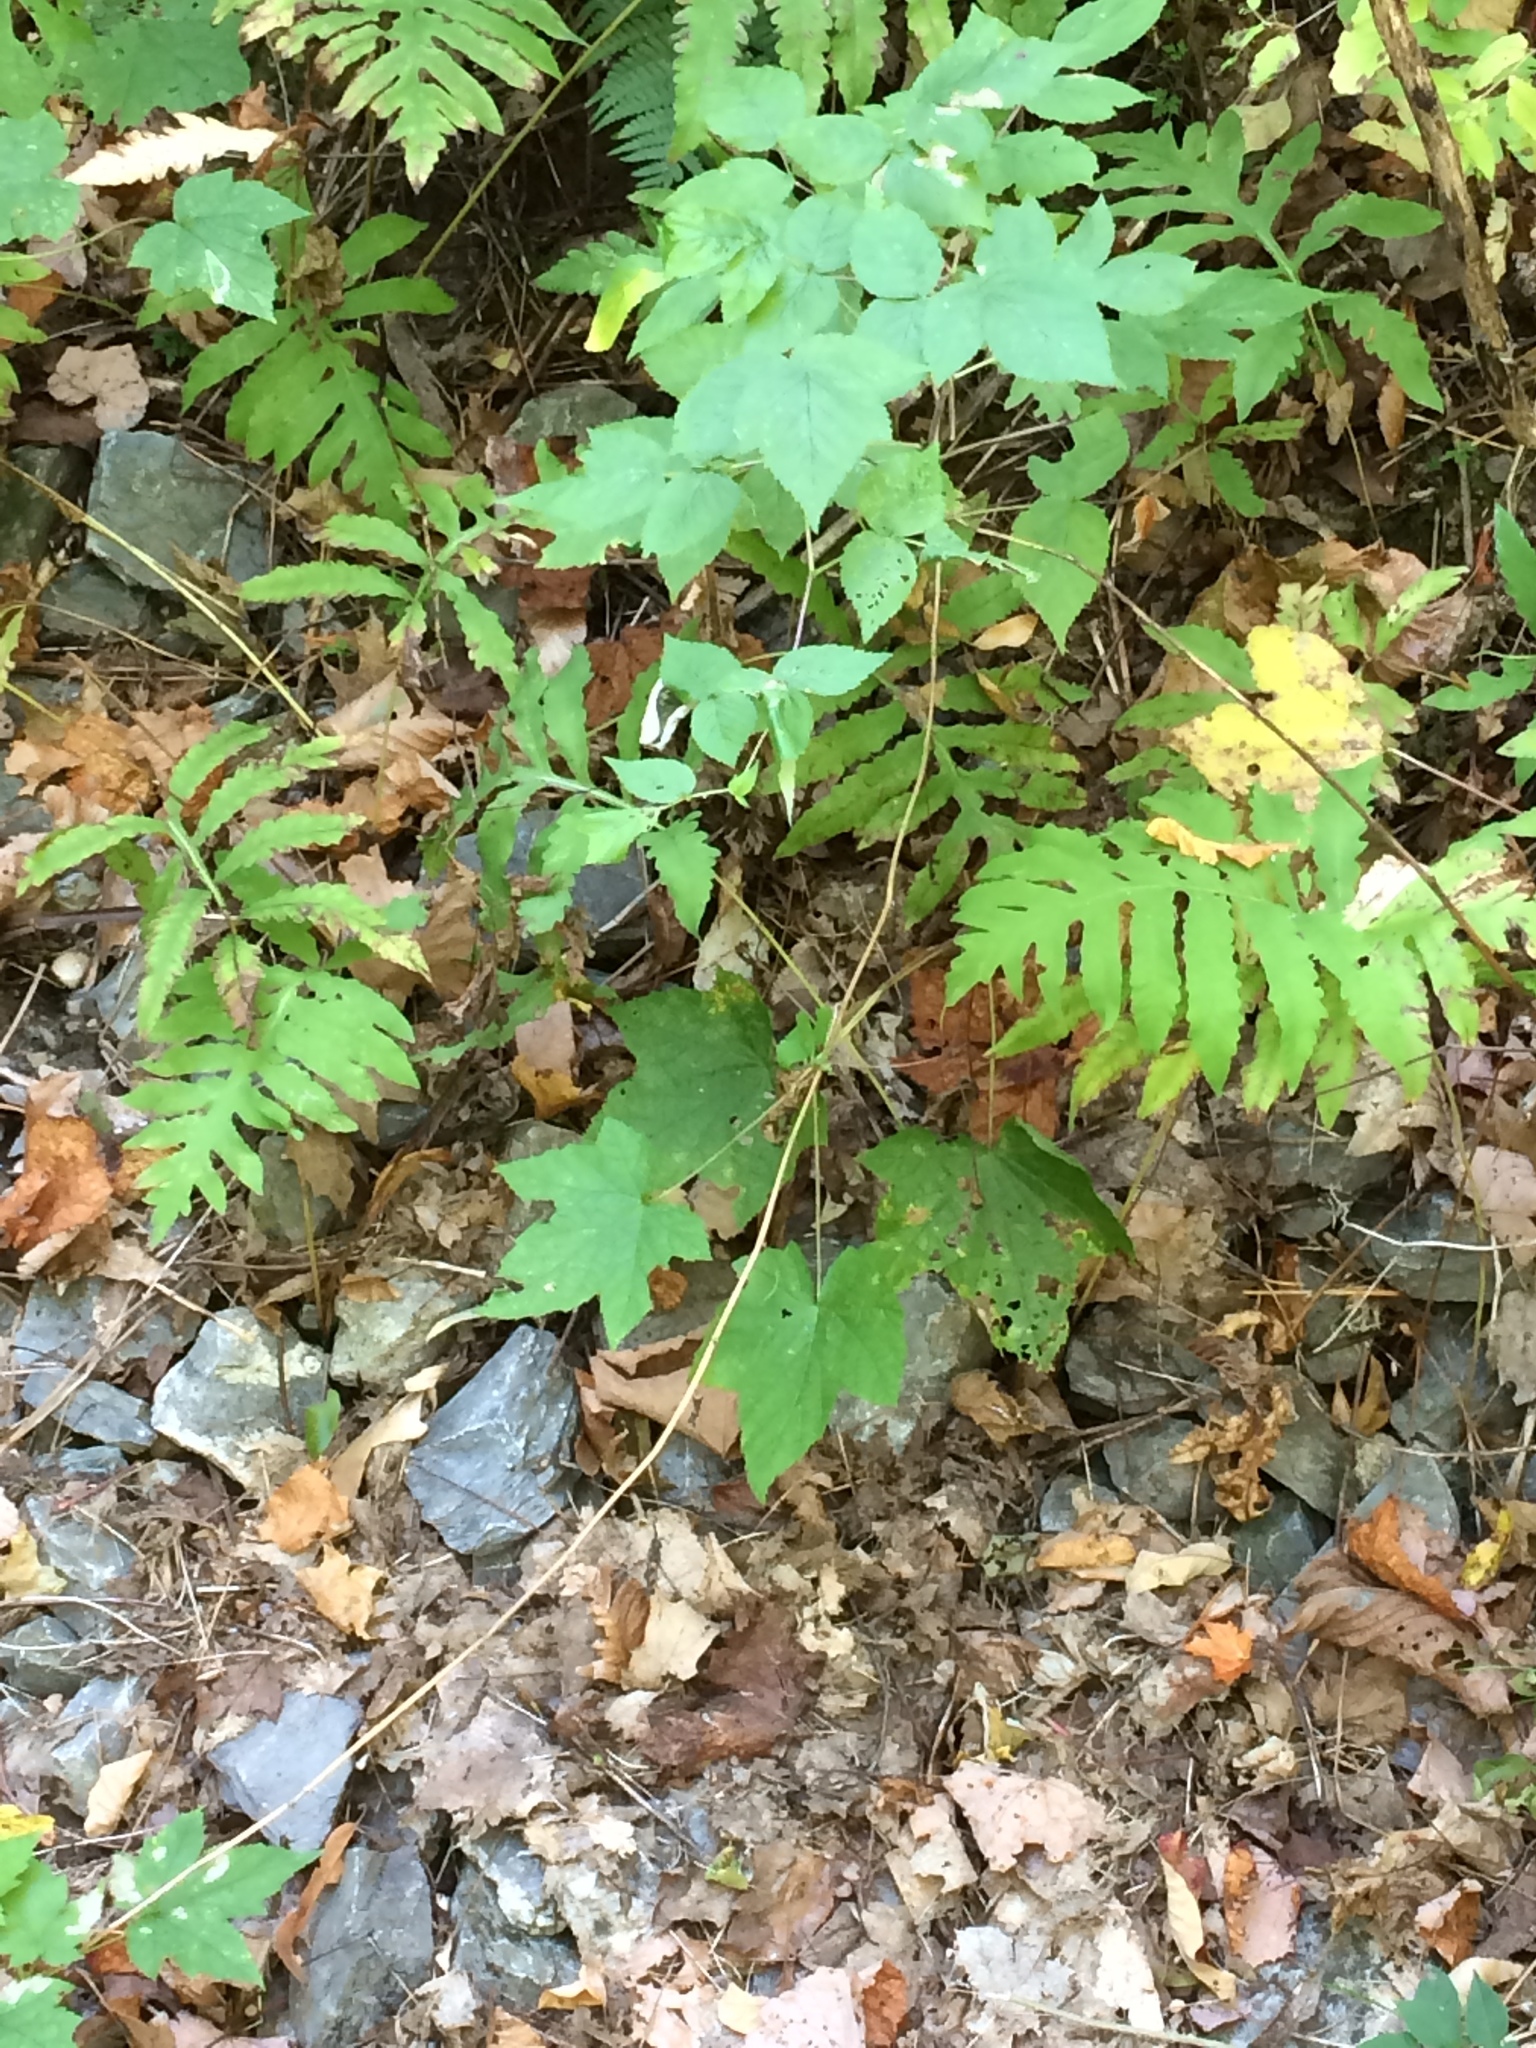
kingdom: Plantae
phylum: Tracheophyta
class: Polypodiopsida
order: Polypodiales
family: Onocleaceae
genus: Onoclea
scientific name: Onoclea sensibilis
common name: Sensitive fern
